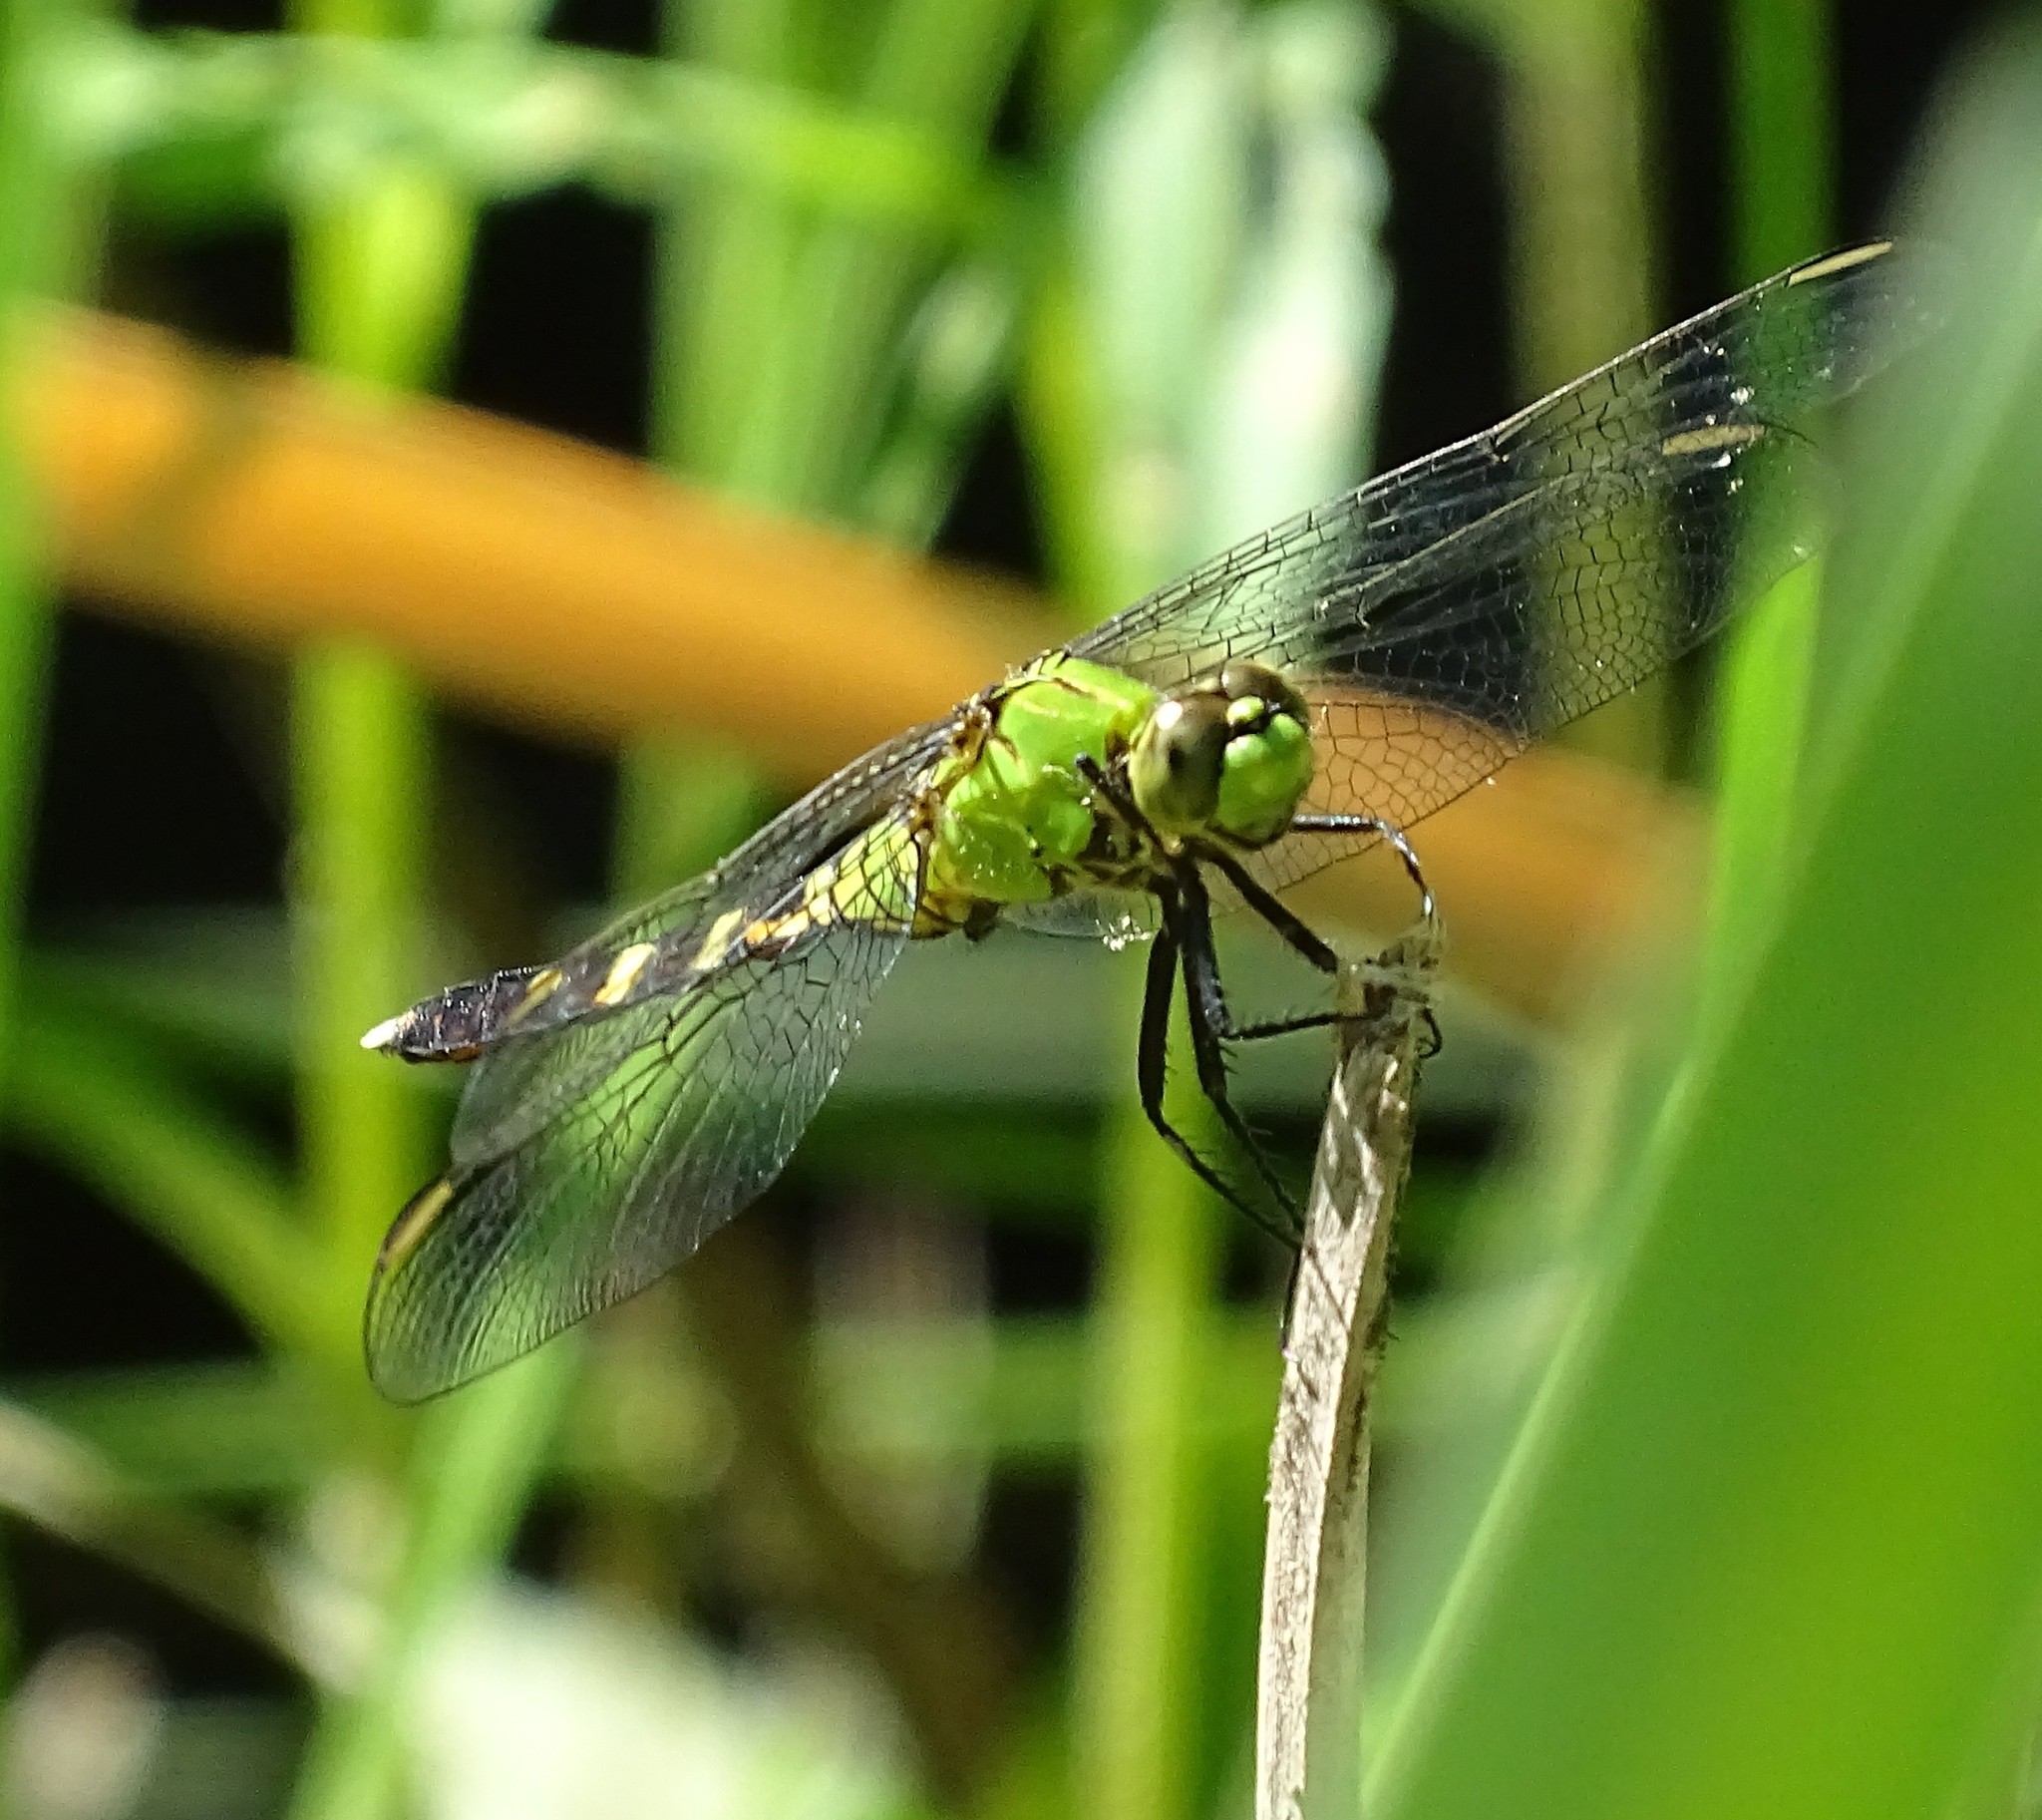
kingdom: Animalia
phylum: Arthropoda
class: Insecta
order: Odonata
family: Libellulidae
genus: Erythemis
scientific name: Erythemis simplicicollis
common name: Eastern pondhawk
